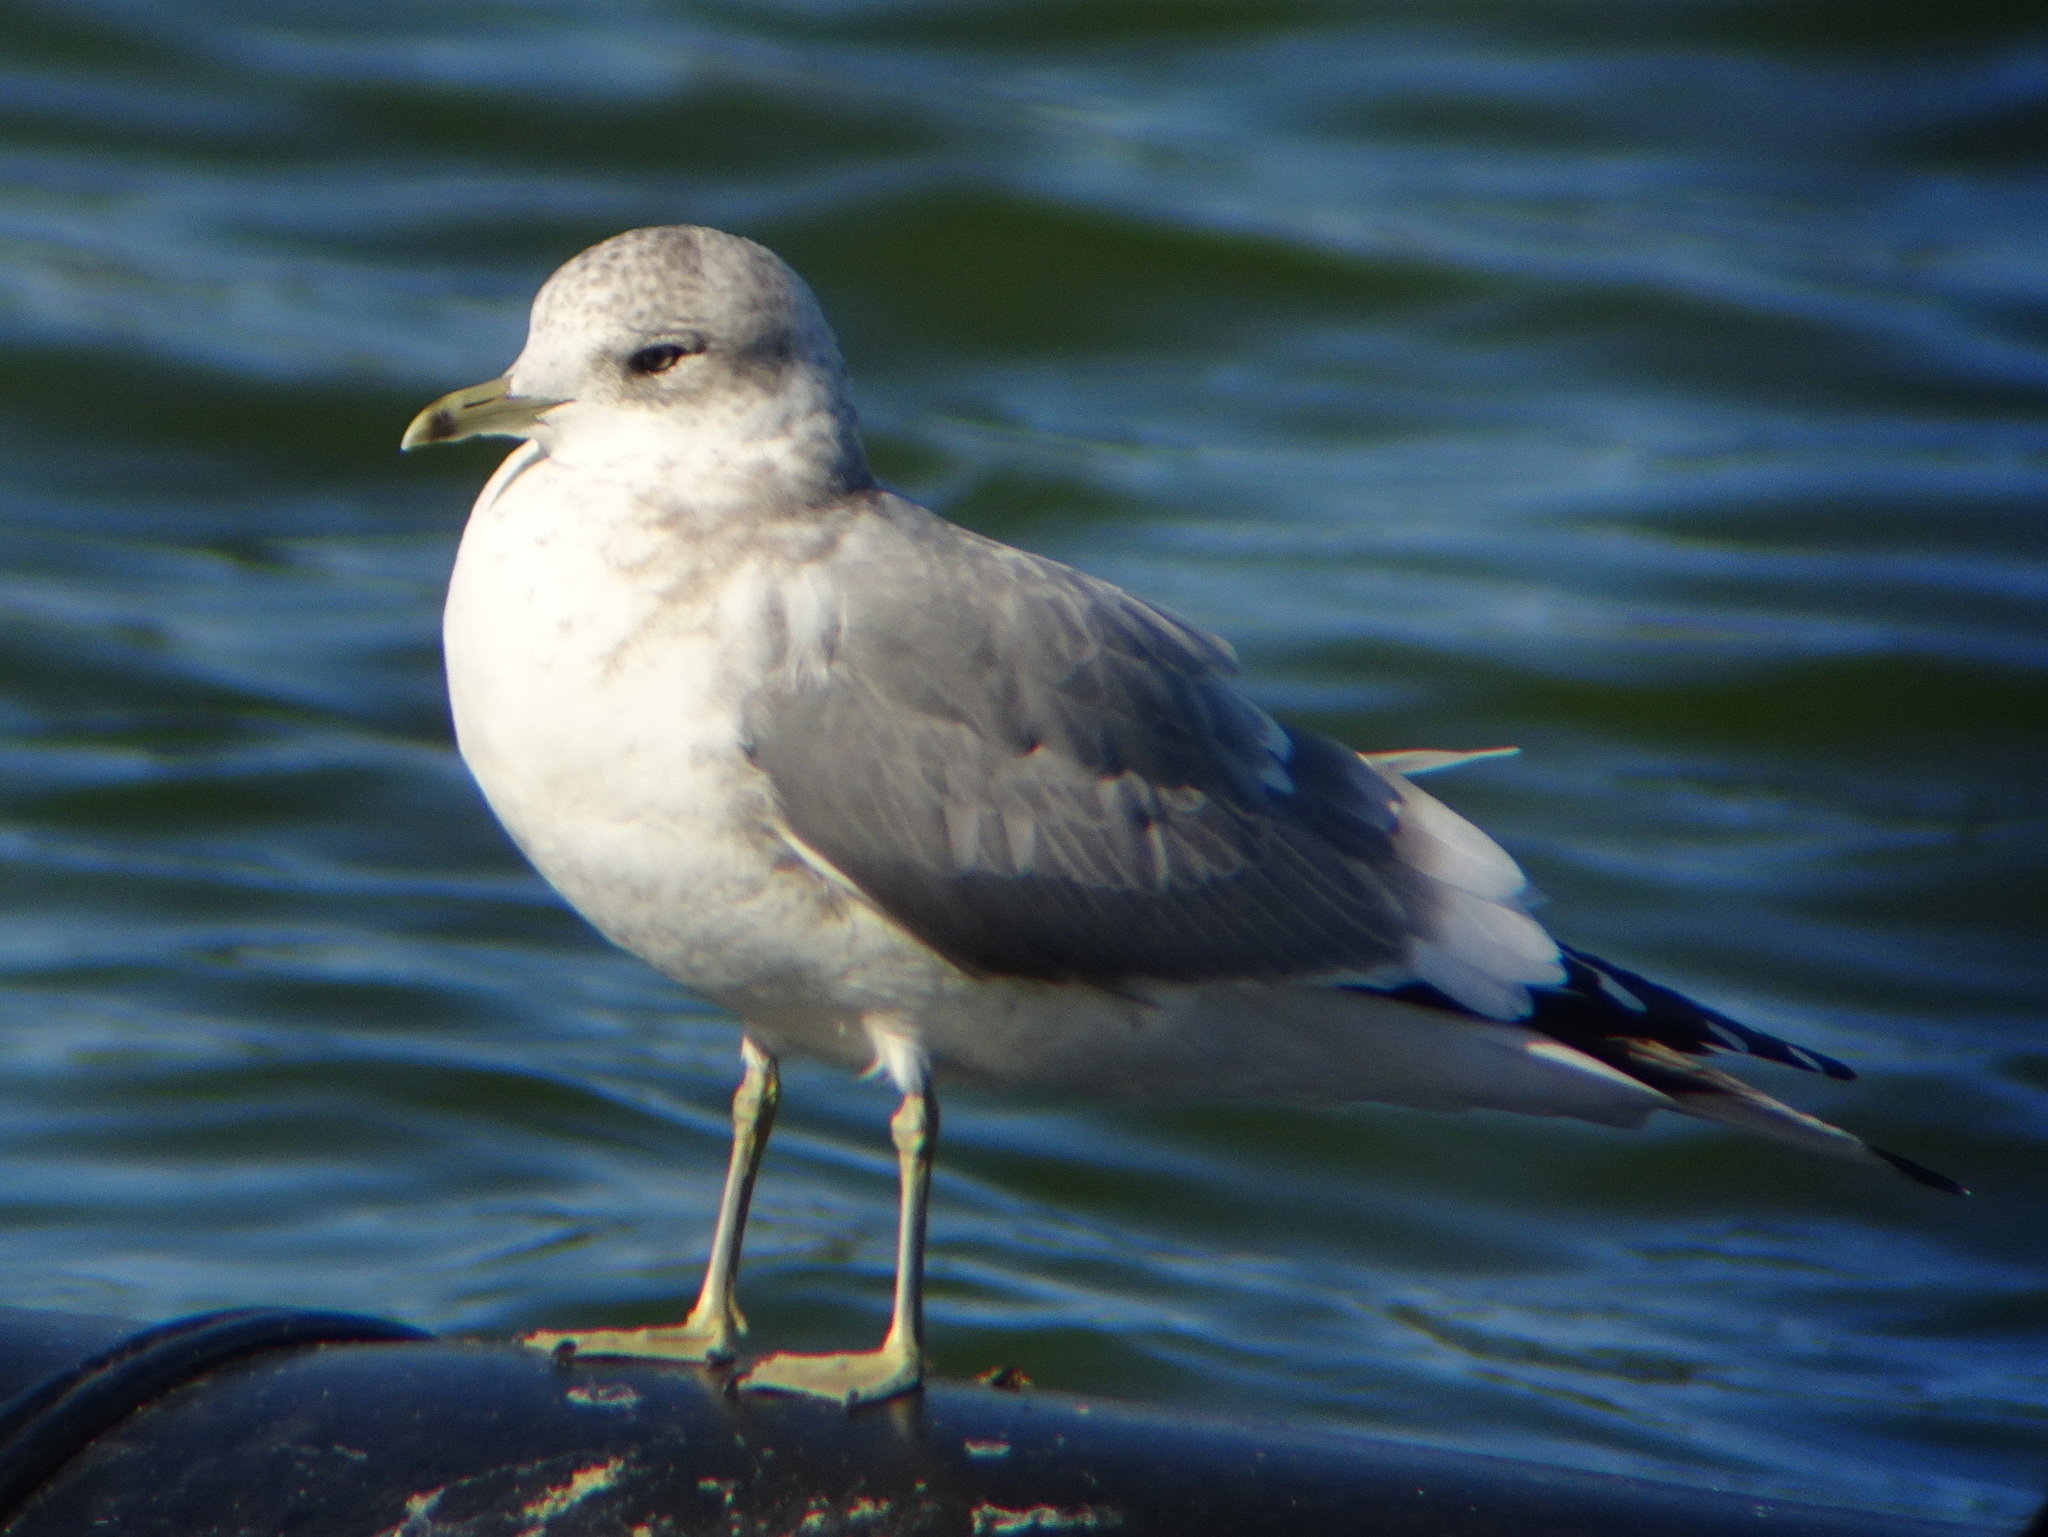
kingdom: Animalia
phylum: Chordata
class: Aves
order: Charadriiformes
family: Laridae
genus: Larus
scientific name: Larus brachyrhynchus
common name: Short-billed gull
